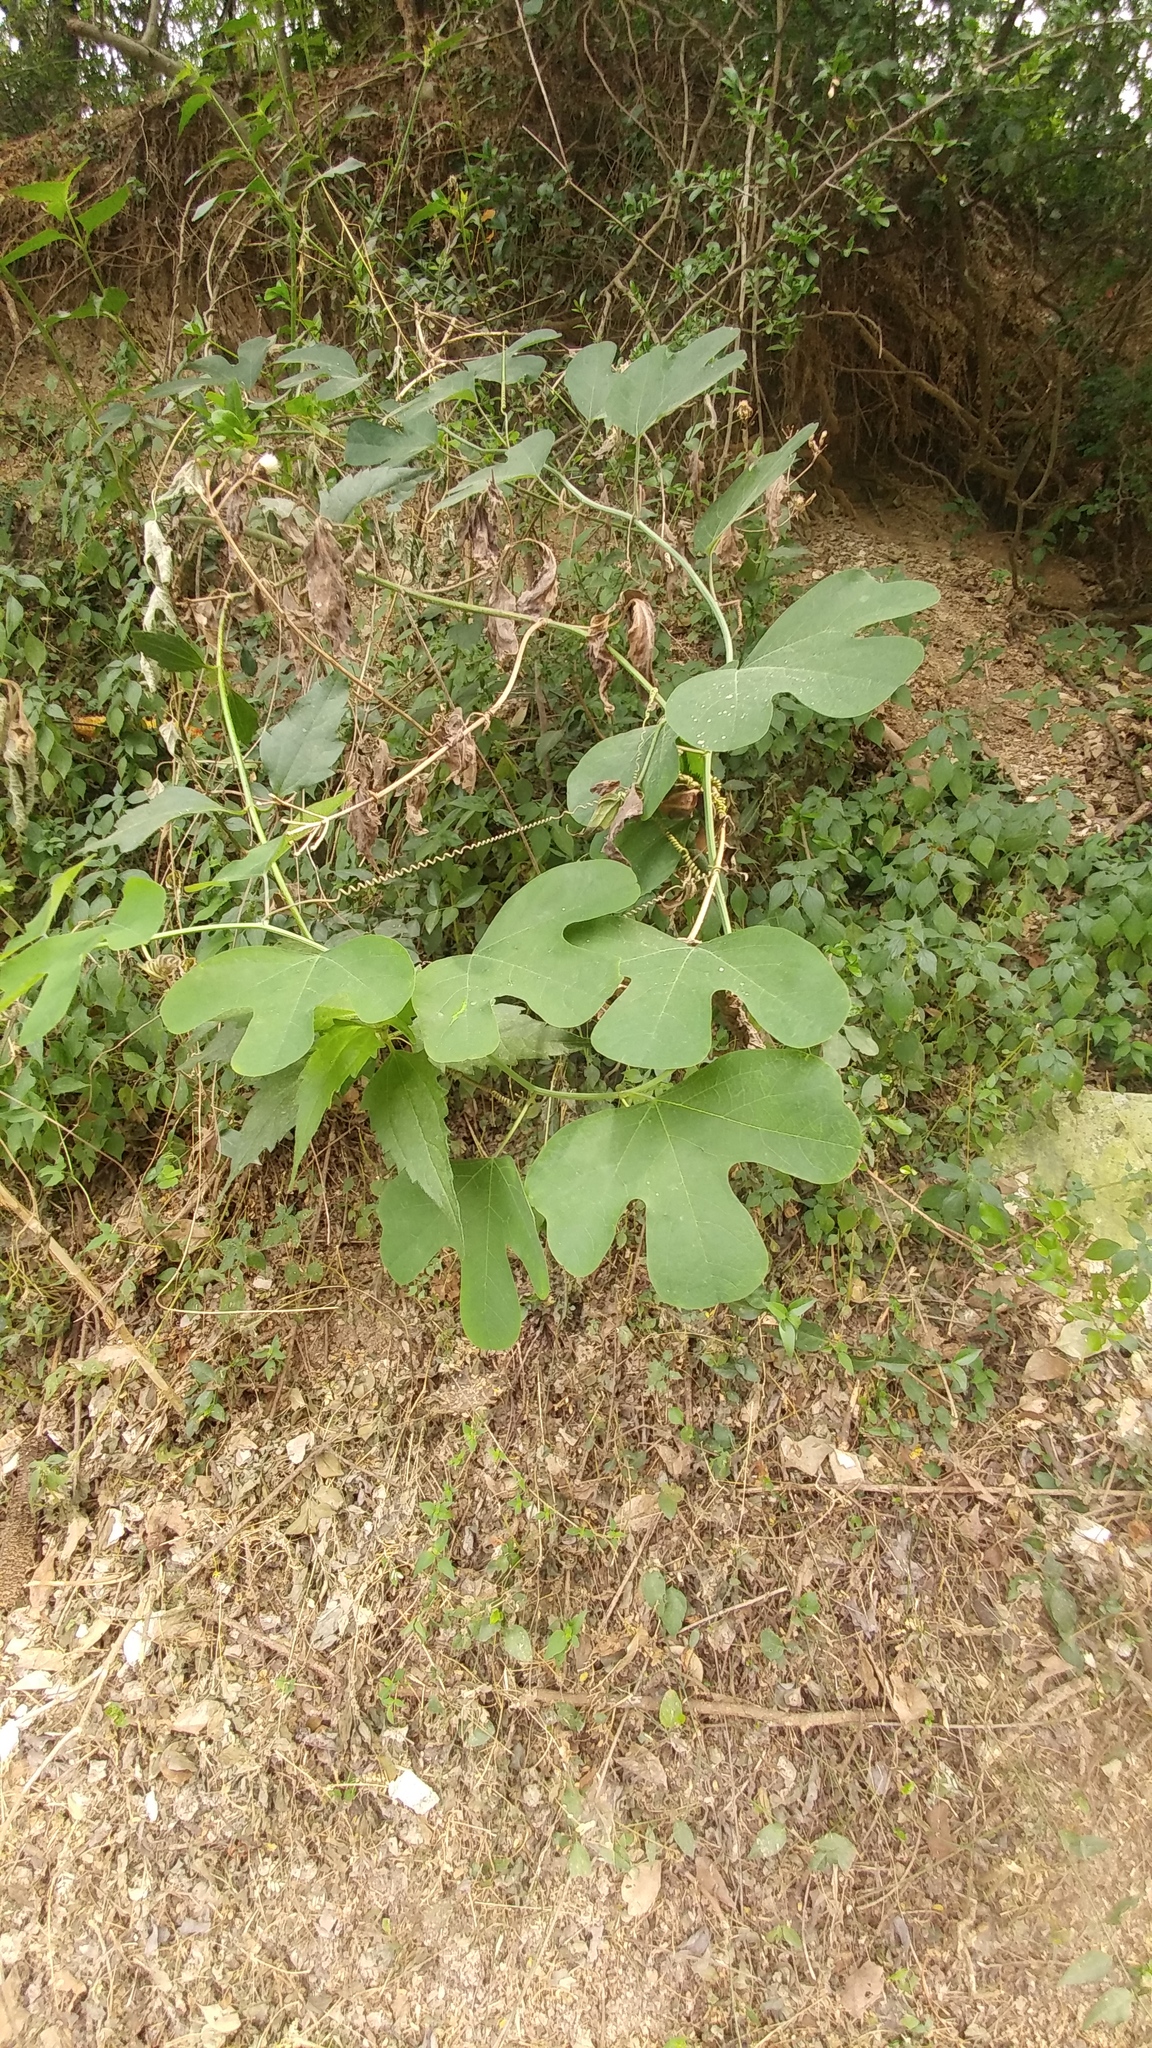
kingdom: Plantae
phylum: Tracheophyta
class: Magnoliopsida
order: Malpighiales
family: Passifloraceae
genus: Passiflora
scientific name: Passiflora affinis
